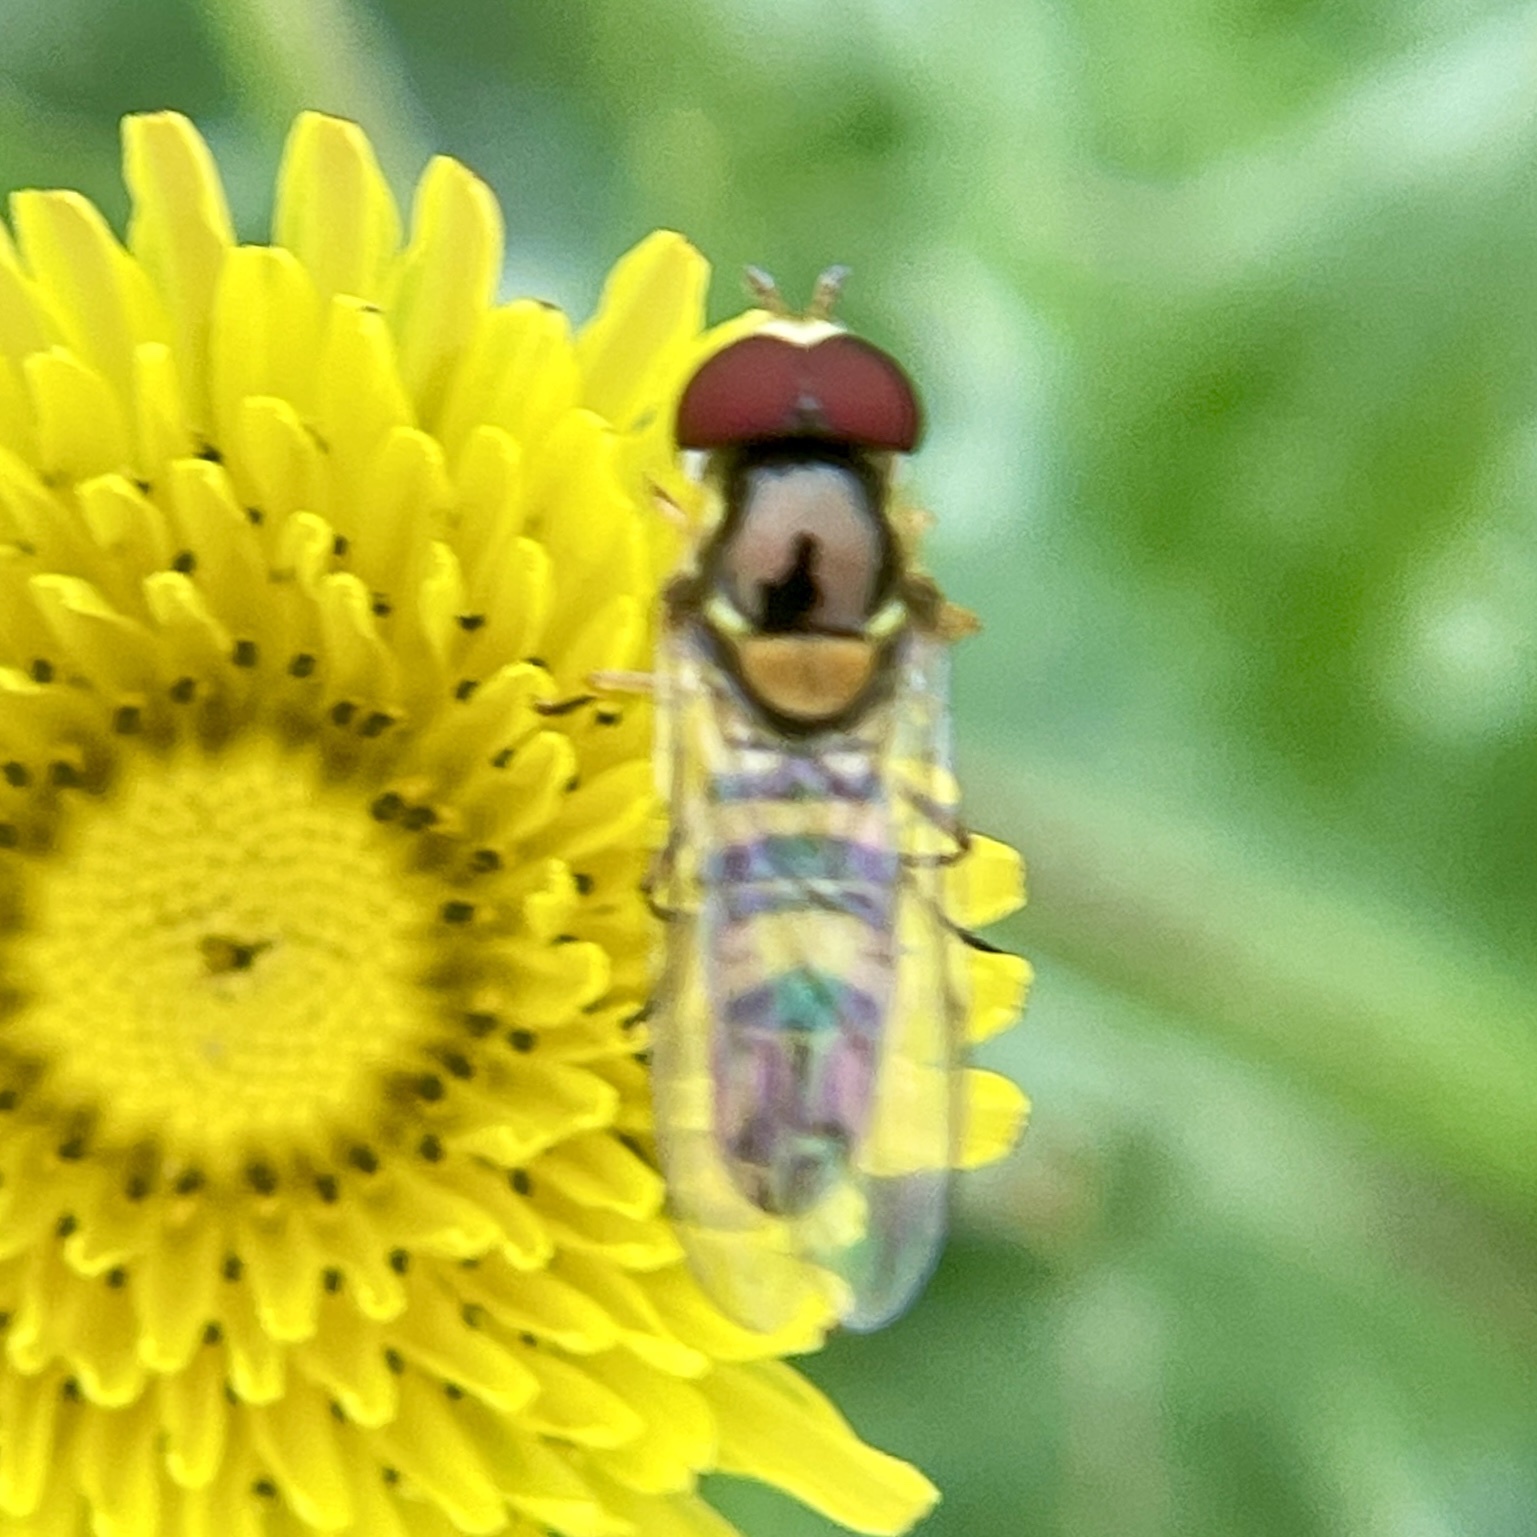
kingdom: Animalia
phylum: Arthropoda
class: Insecta
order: Diptera
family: Syrphidae
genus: Allograpta
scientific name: Allograpta obliqua
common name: Common oblique syrphid
